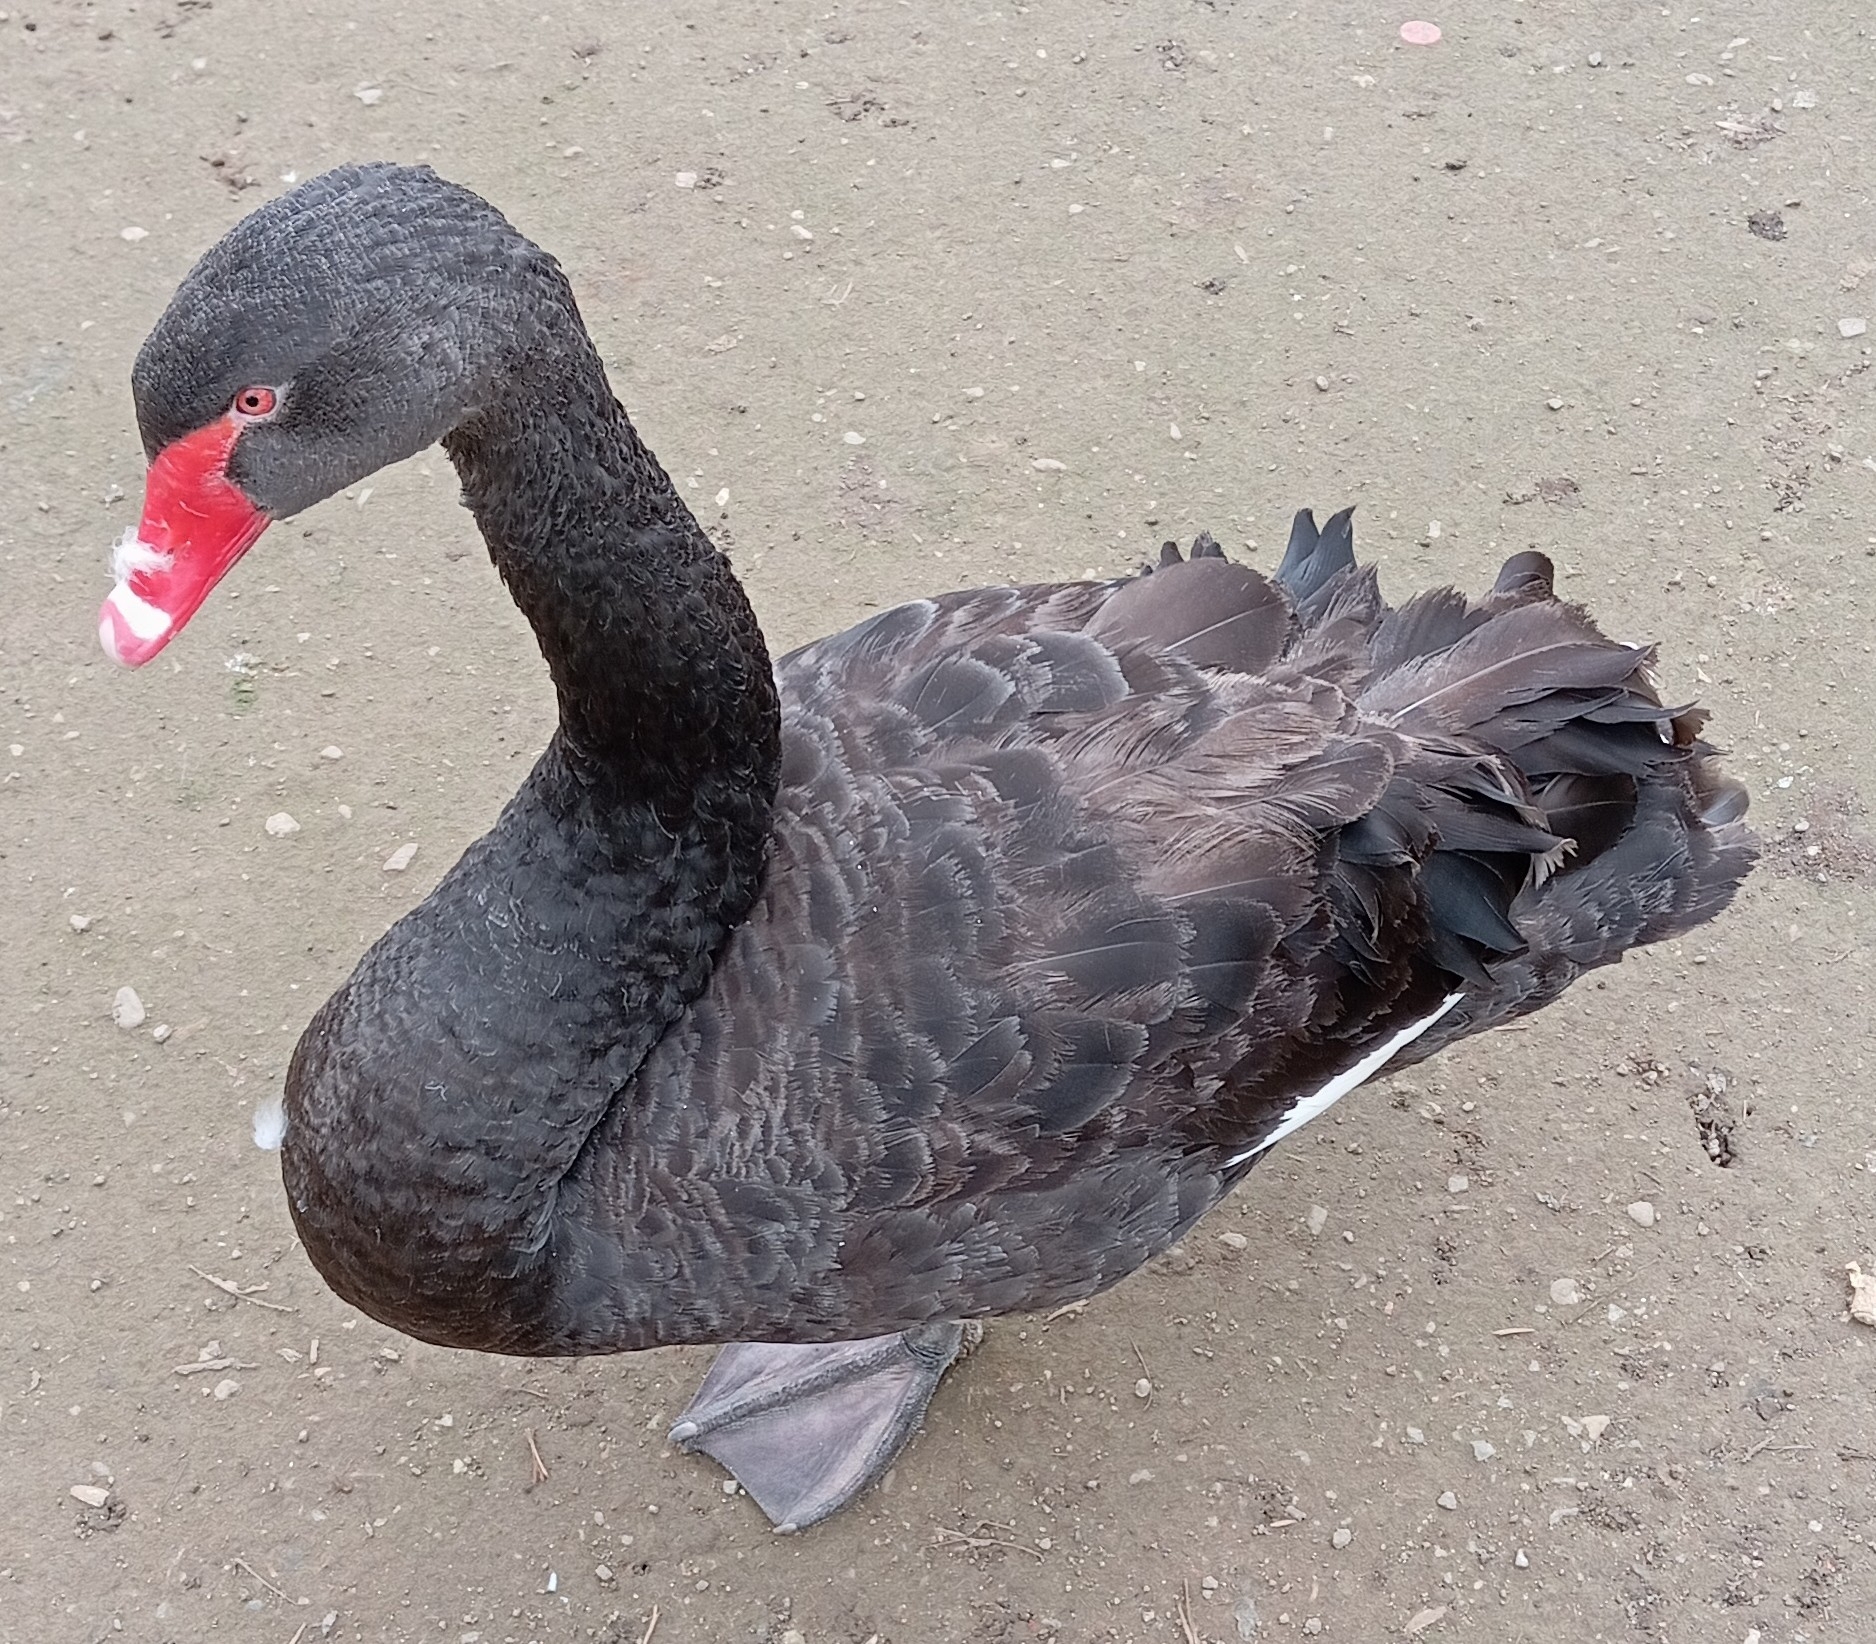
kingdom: Animalia
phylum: Chordata
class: Aves
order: Anseriformes
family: Anatidae
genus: Cygnus
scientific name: Cygnus atratus
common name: Black swan
